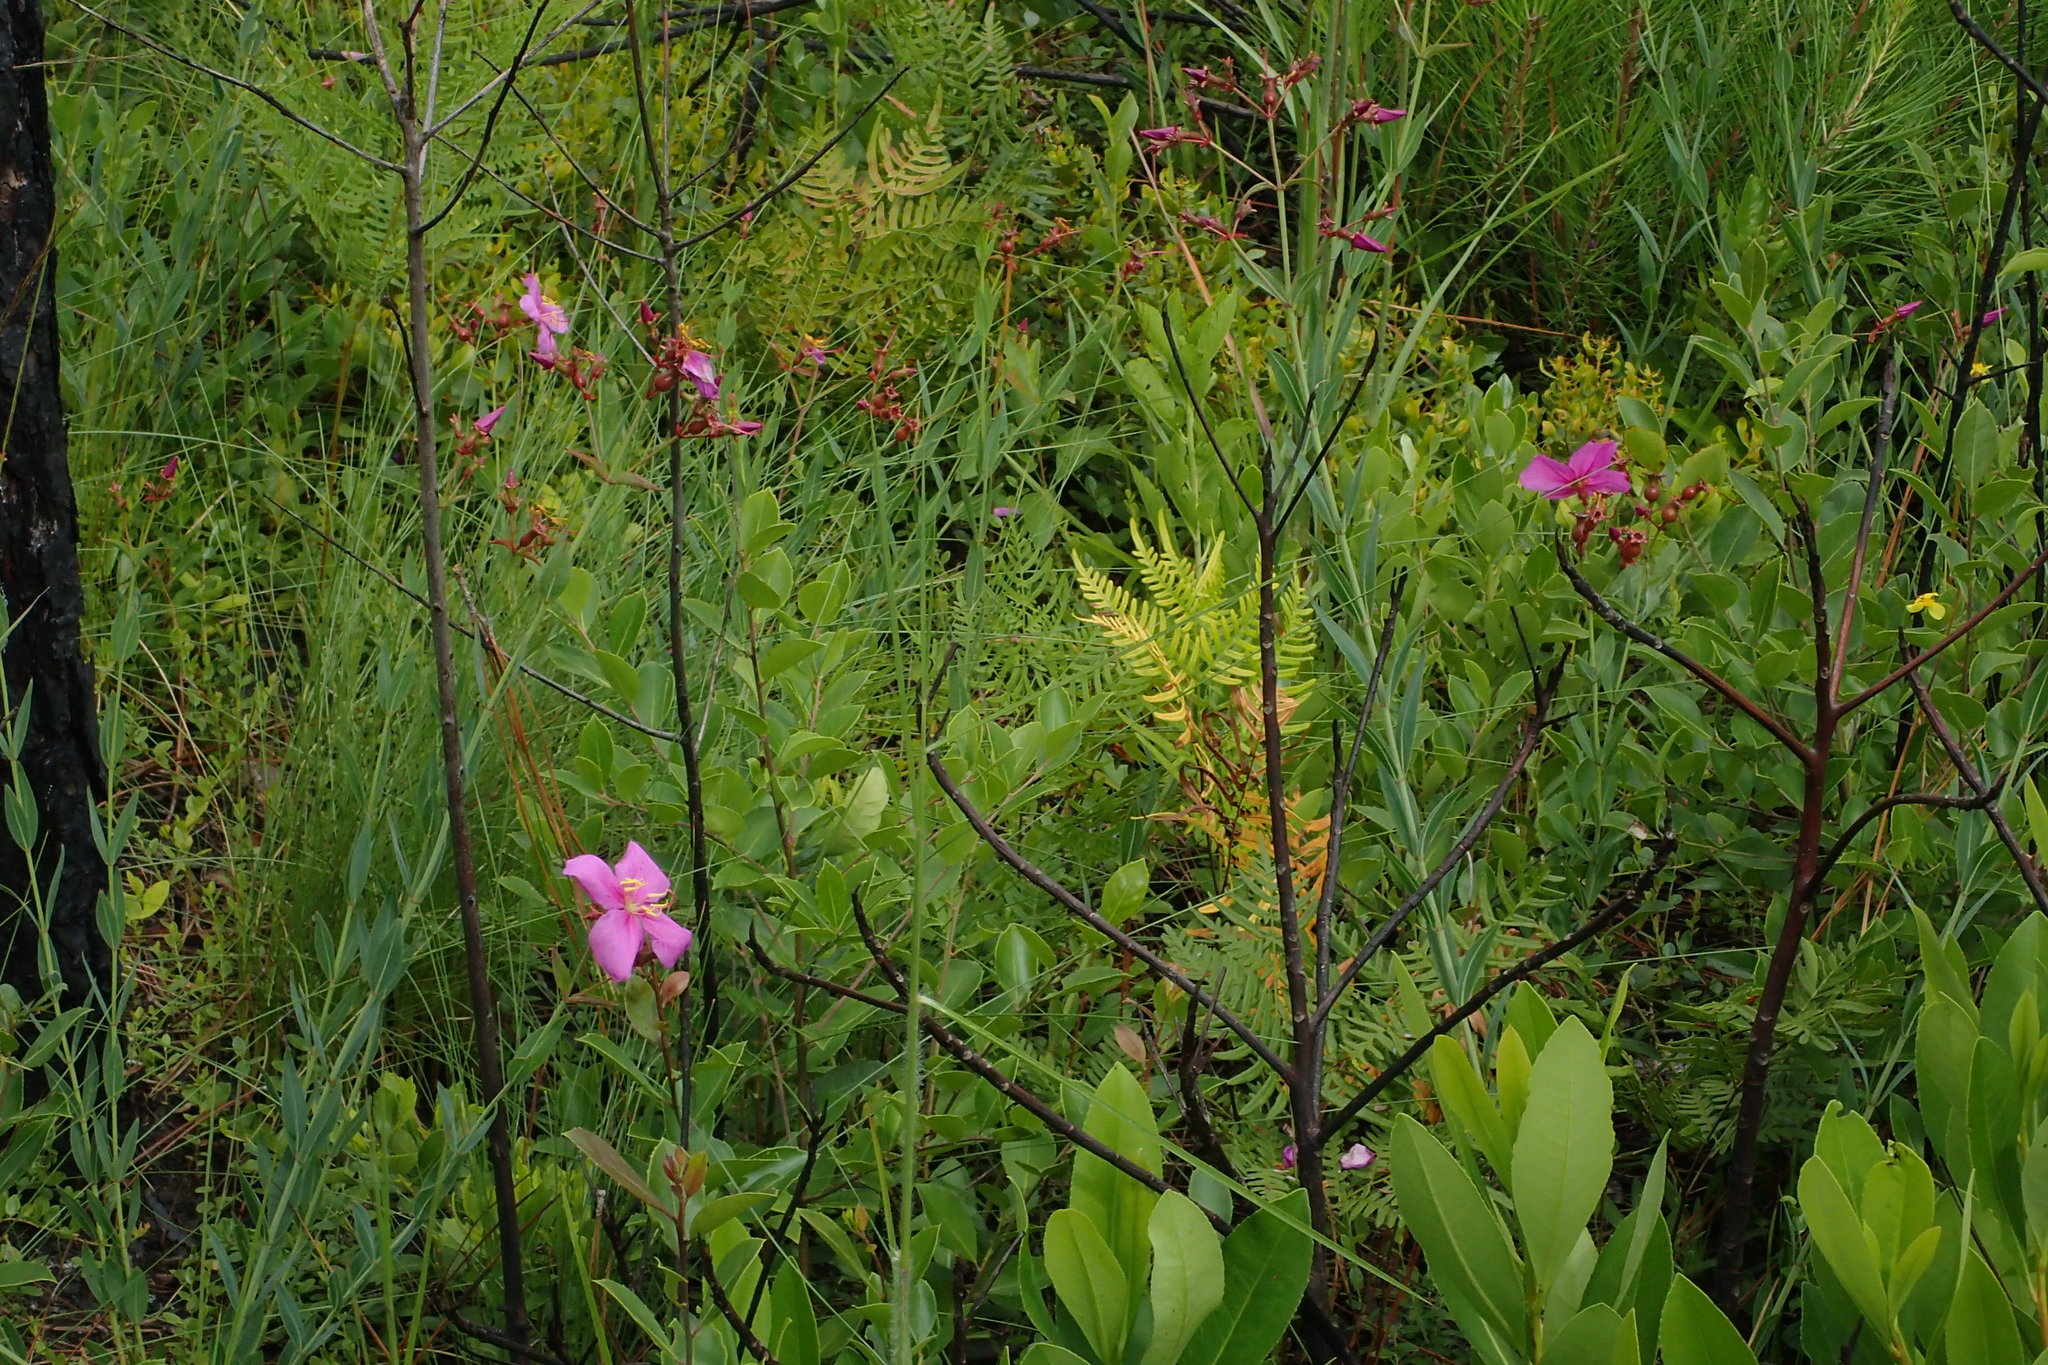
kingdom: Plantae
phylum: Tracheophyta
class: Magnoliopsida
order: Myrtales
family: Melastomataceae
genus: Rhexia
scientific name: Rhexia alifanus
